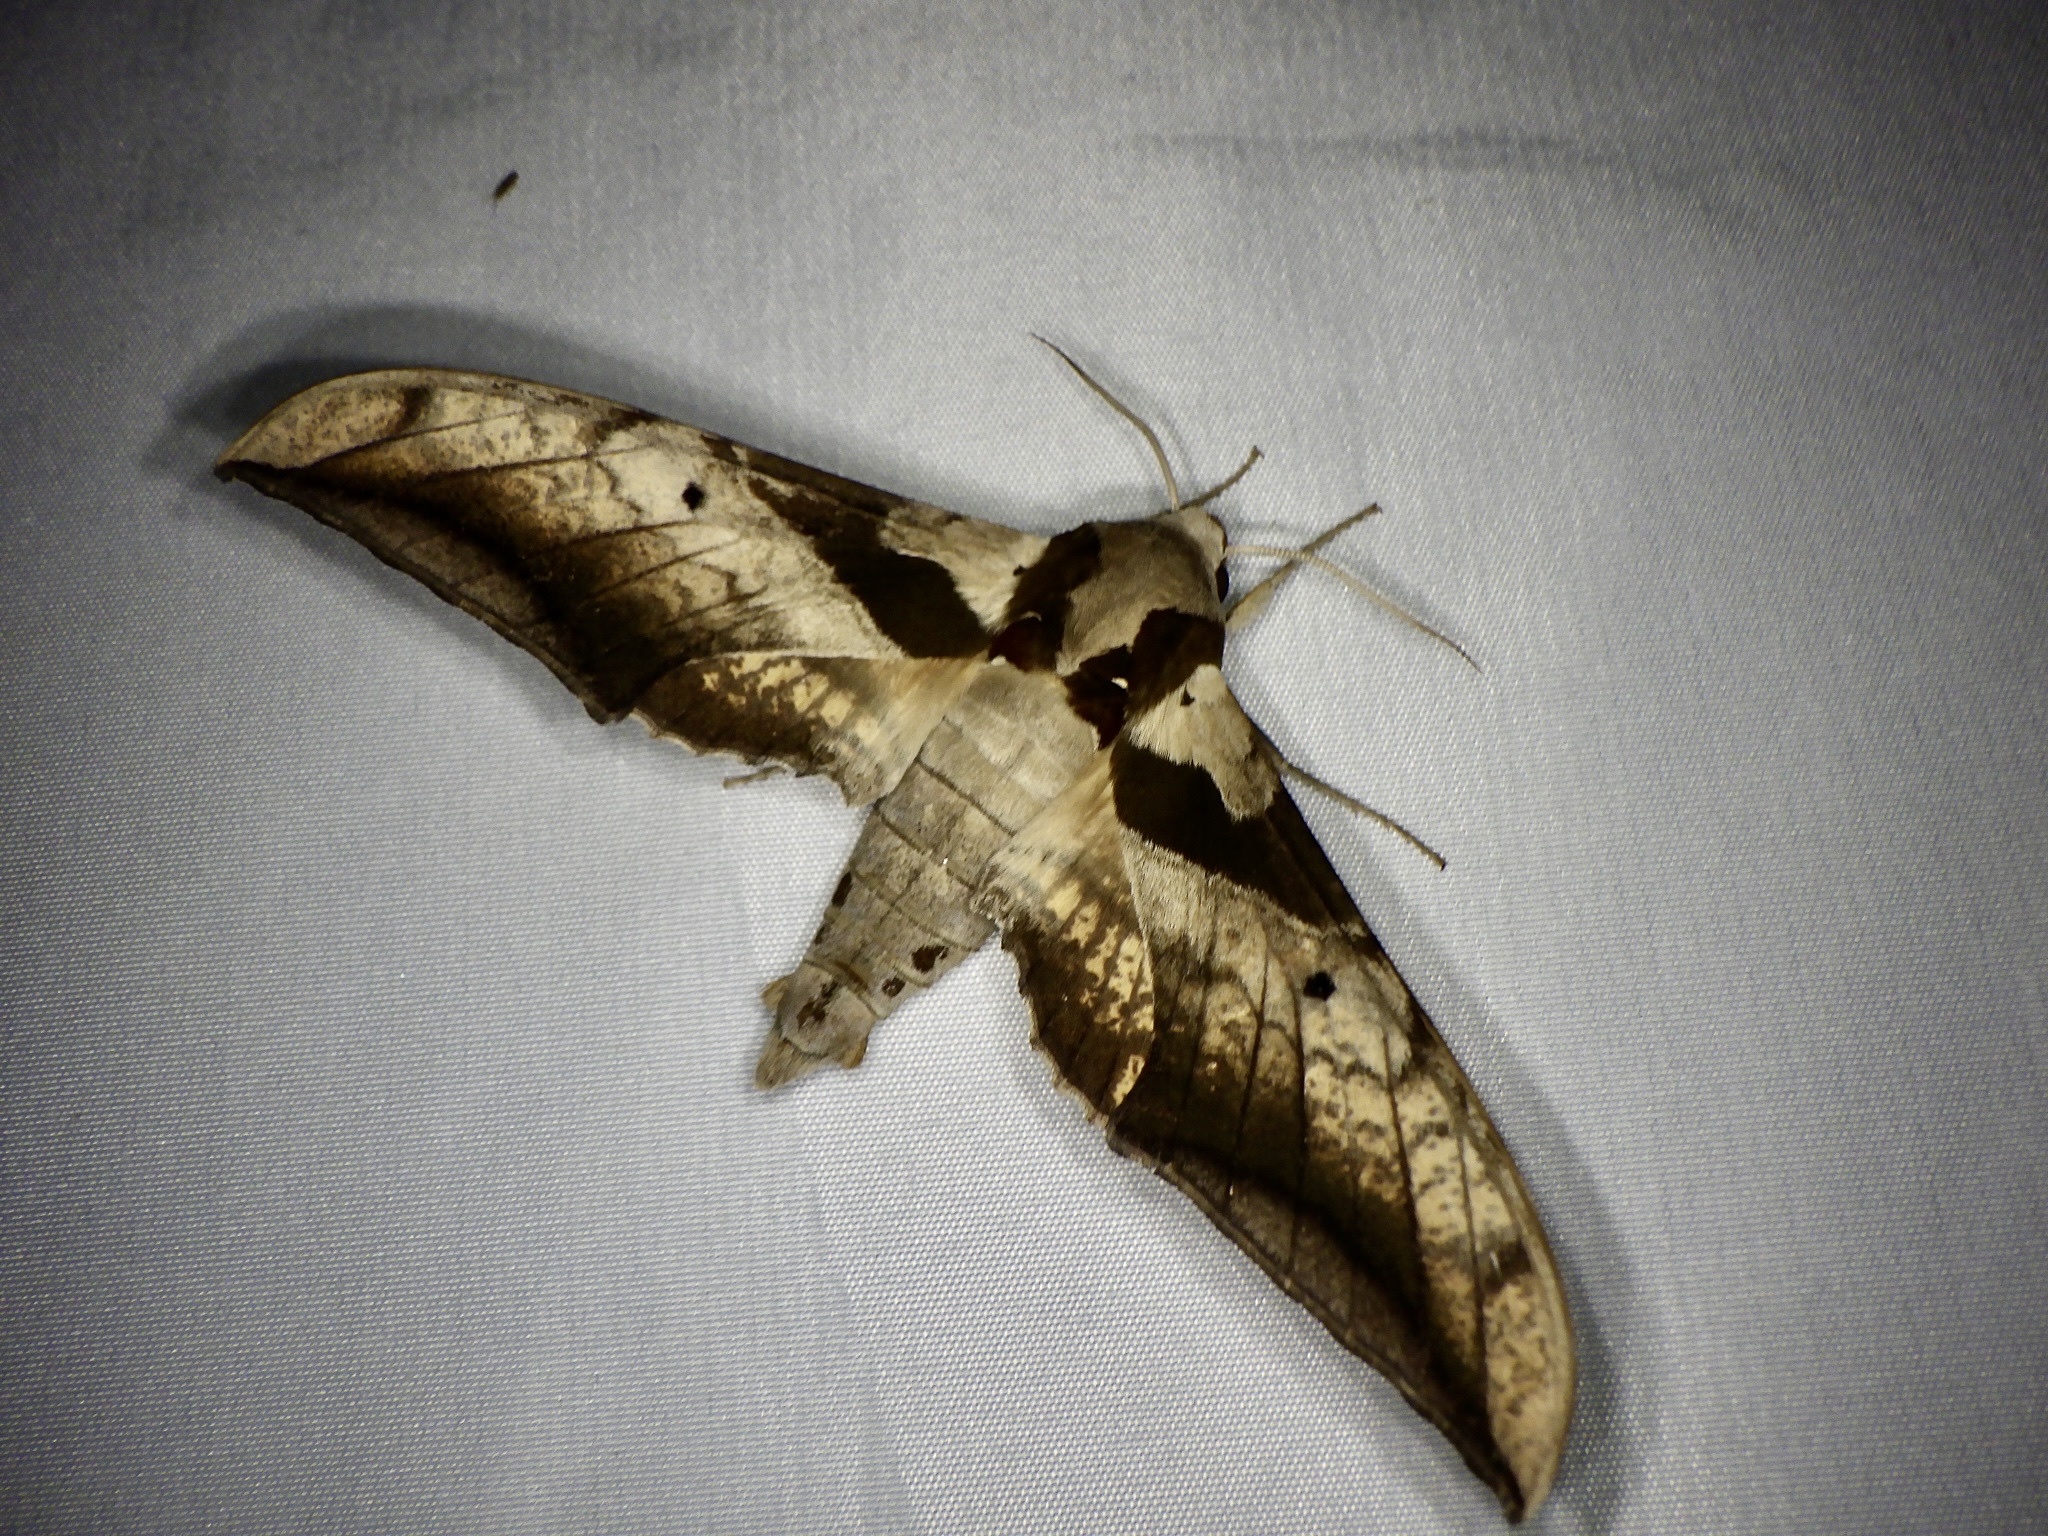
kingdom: Animalia
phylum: Arthropoda
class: Insecta
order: Lepidoptera
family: Sphingidae
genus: Ambulyx
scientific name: Ambulyx japonica
